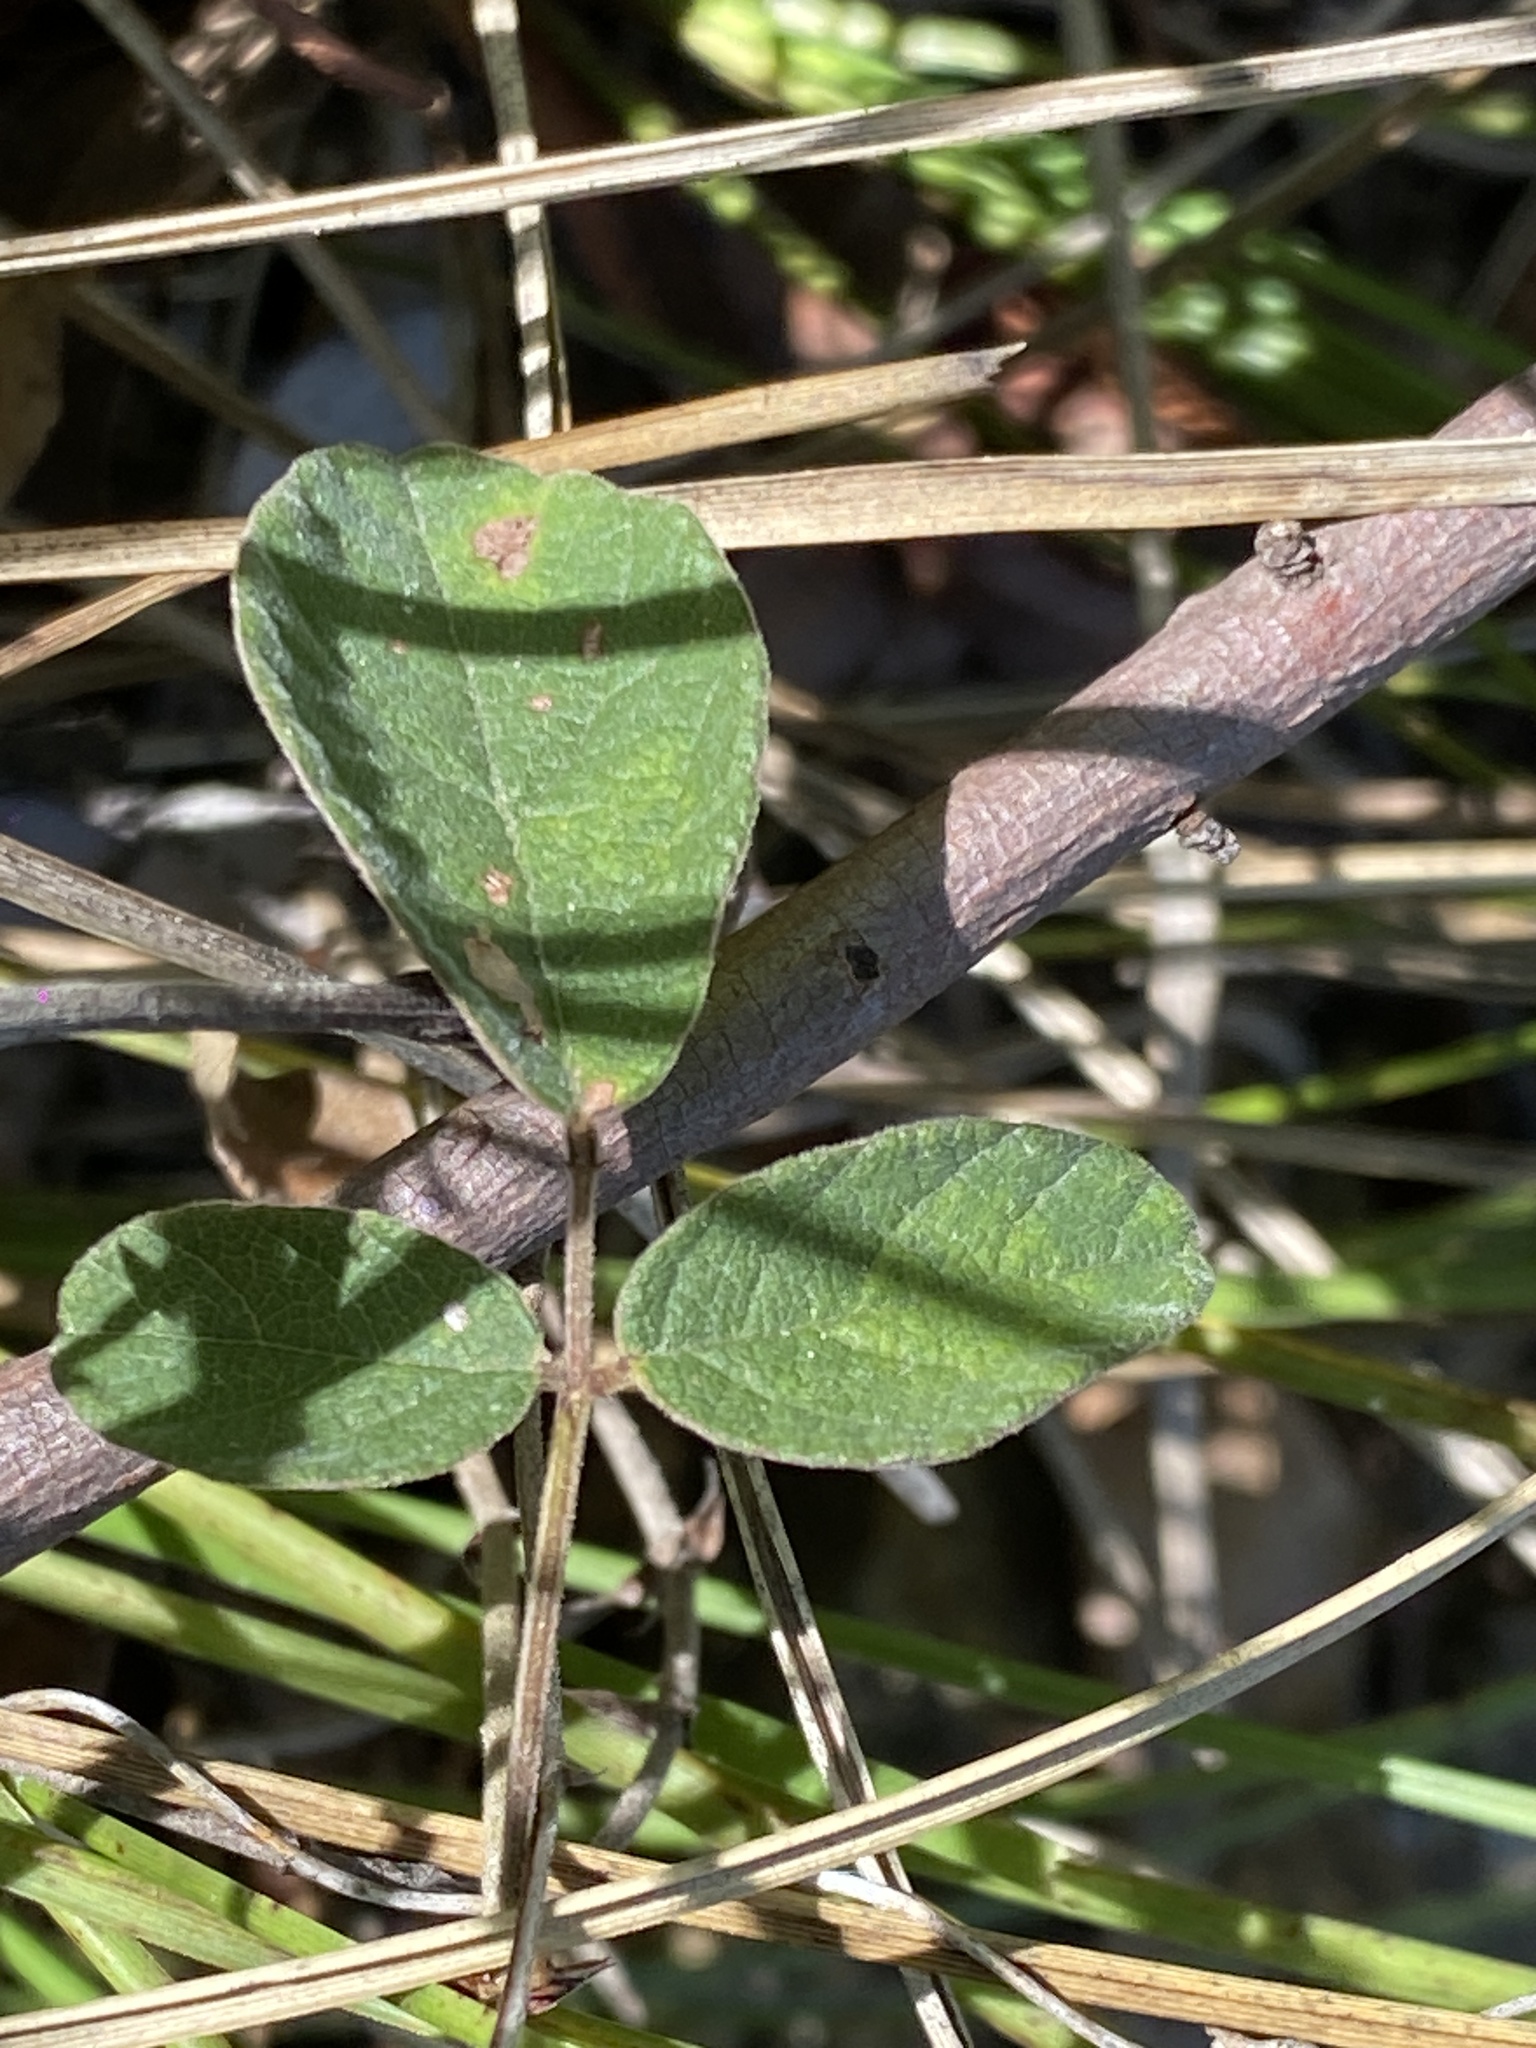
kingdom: Plantae
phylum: Tracheophyta
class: Magnoliopsida
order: Fabales
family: Fabaceae
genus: Maekawaea
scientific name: Maekawaea rhytidophylla
